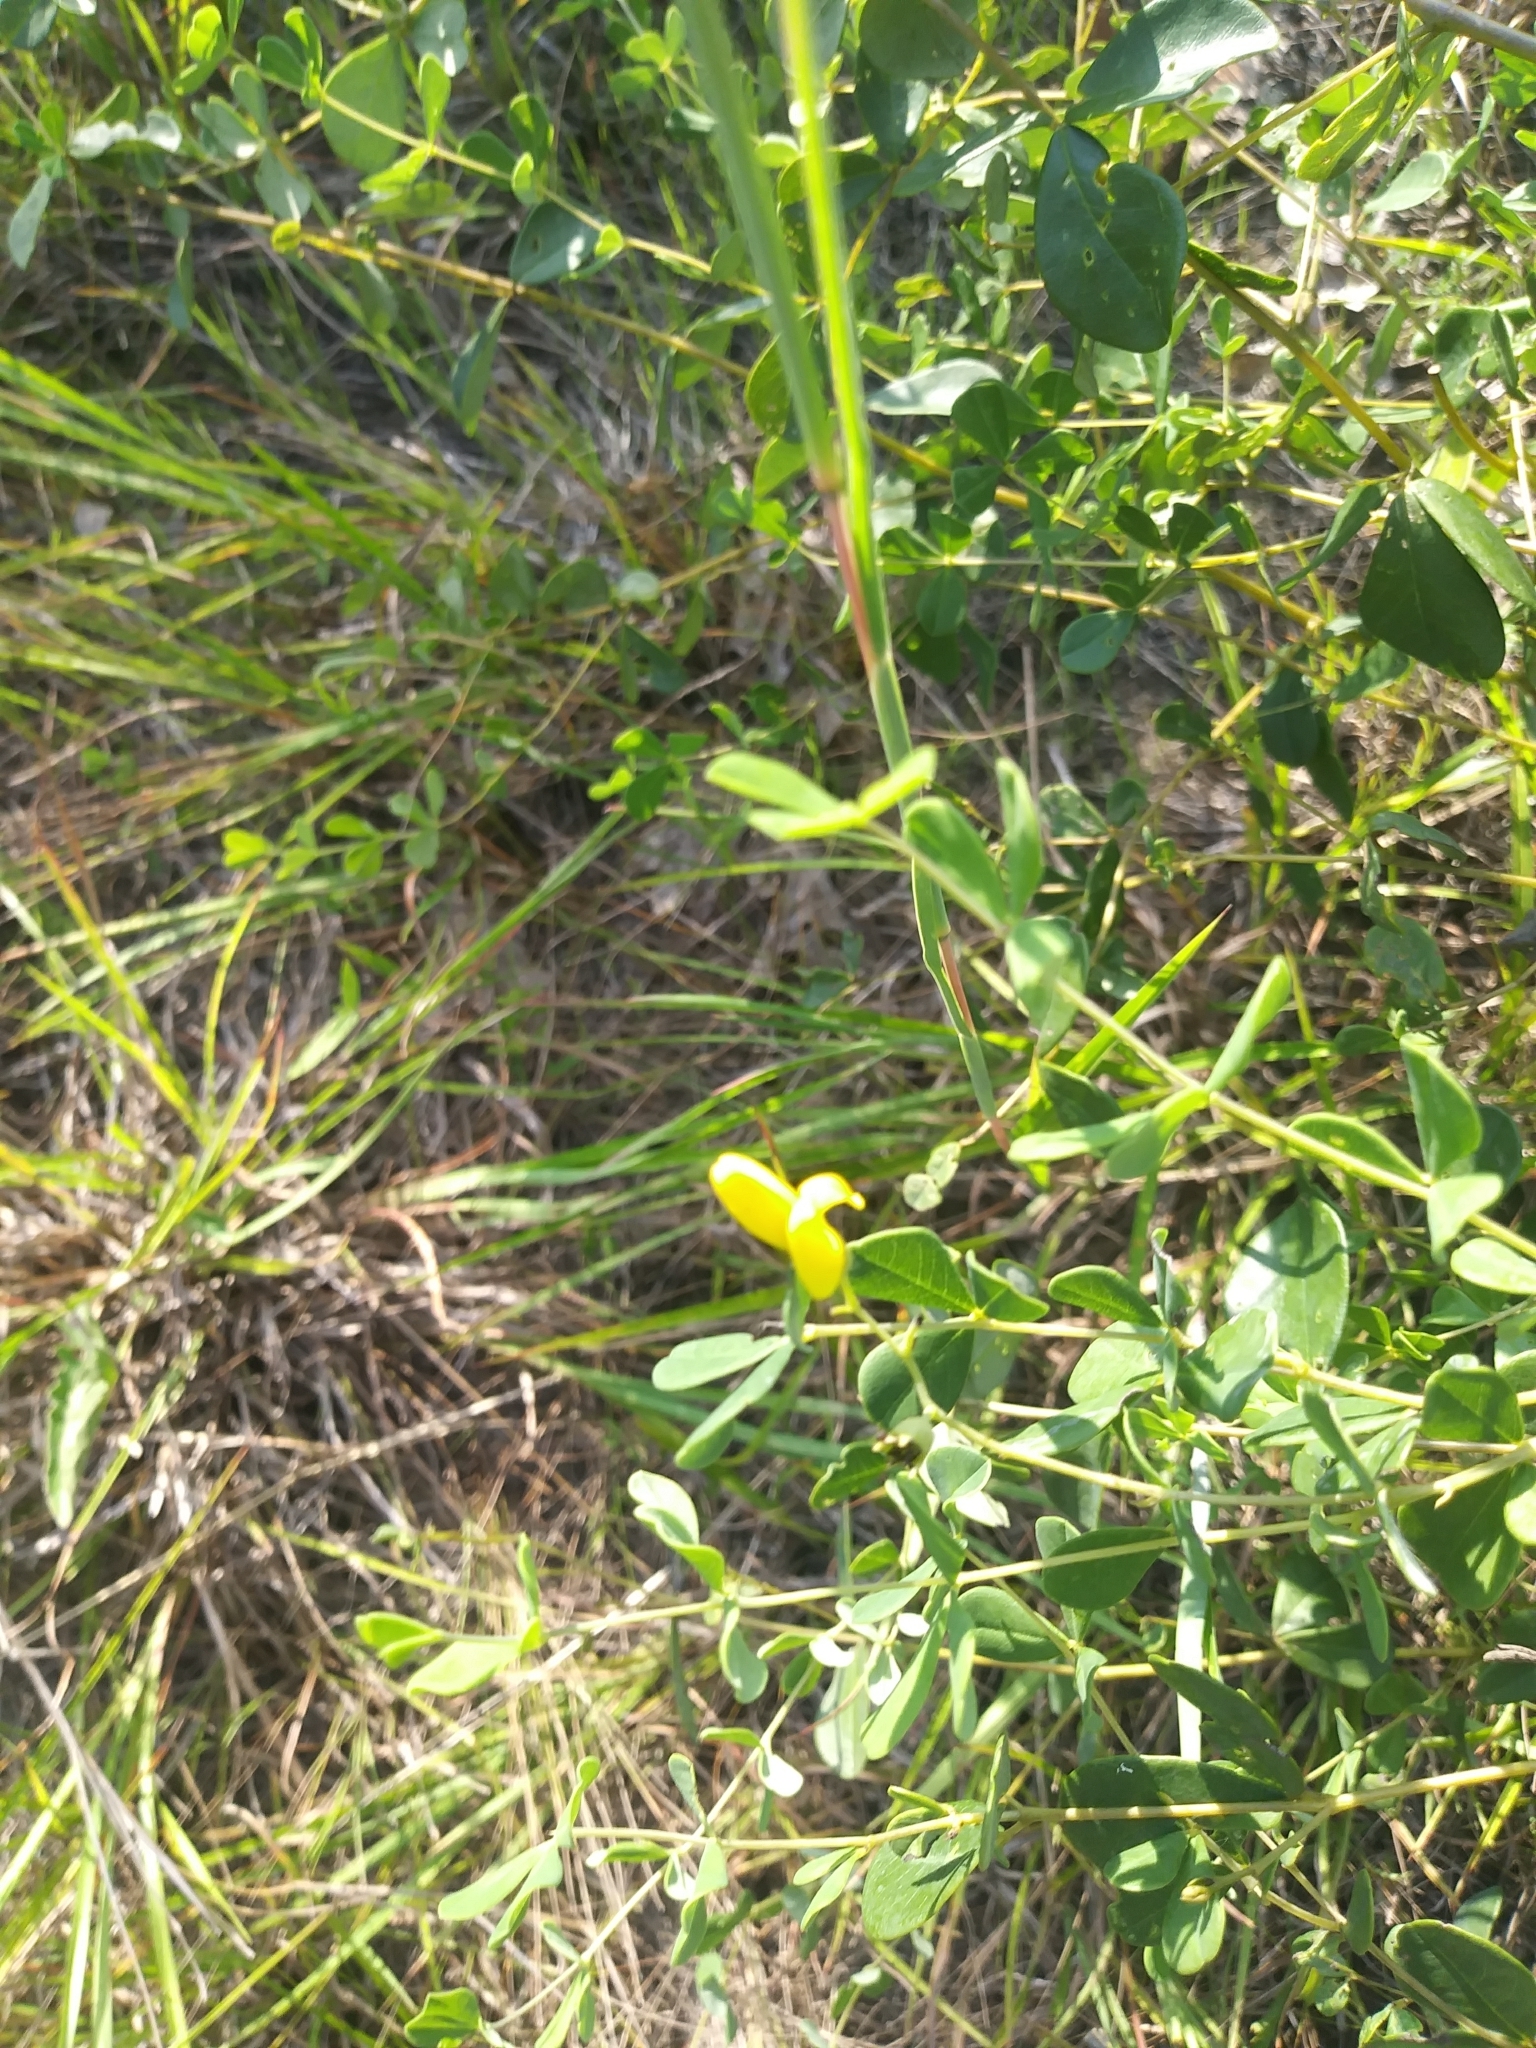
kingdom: Plantae
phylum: Tracheophyta
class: Magnoliopsida
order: Fabales
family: Fabaceae
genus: Baptisia
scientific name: Baptisia tinctoria
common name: Wild indigo
